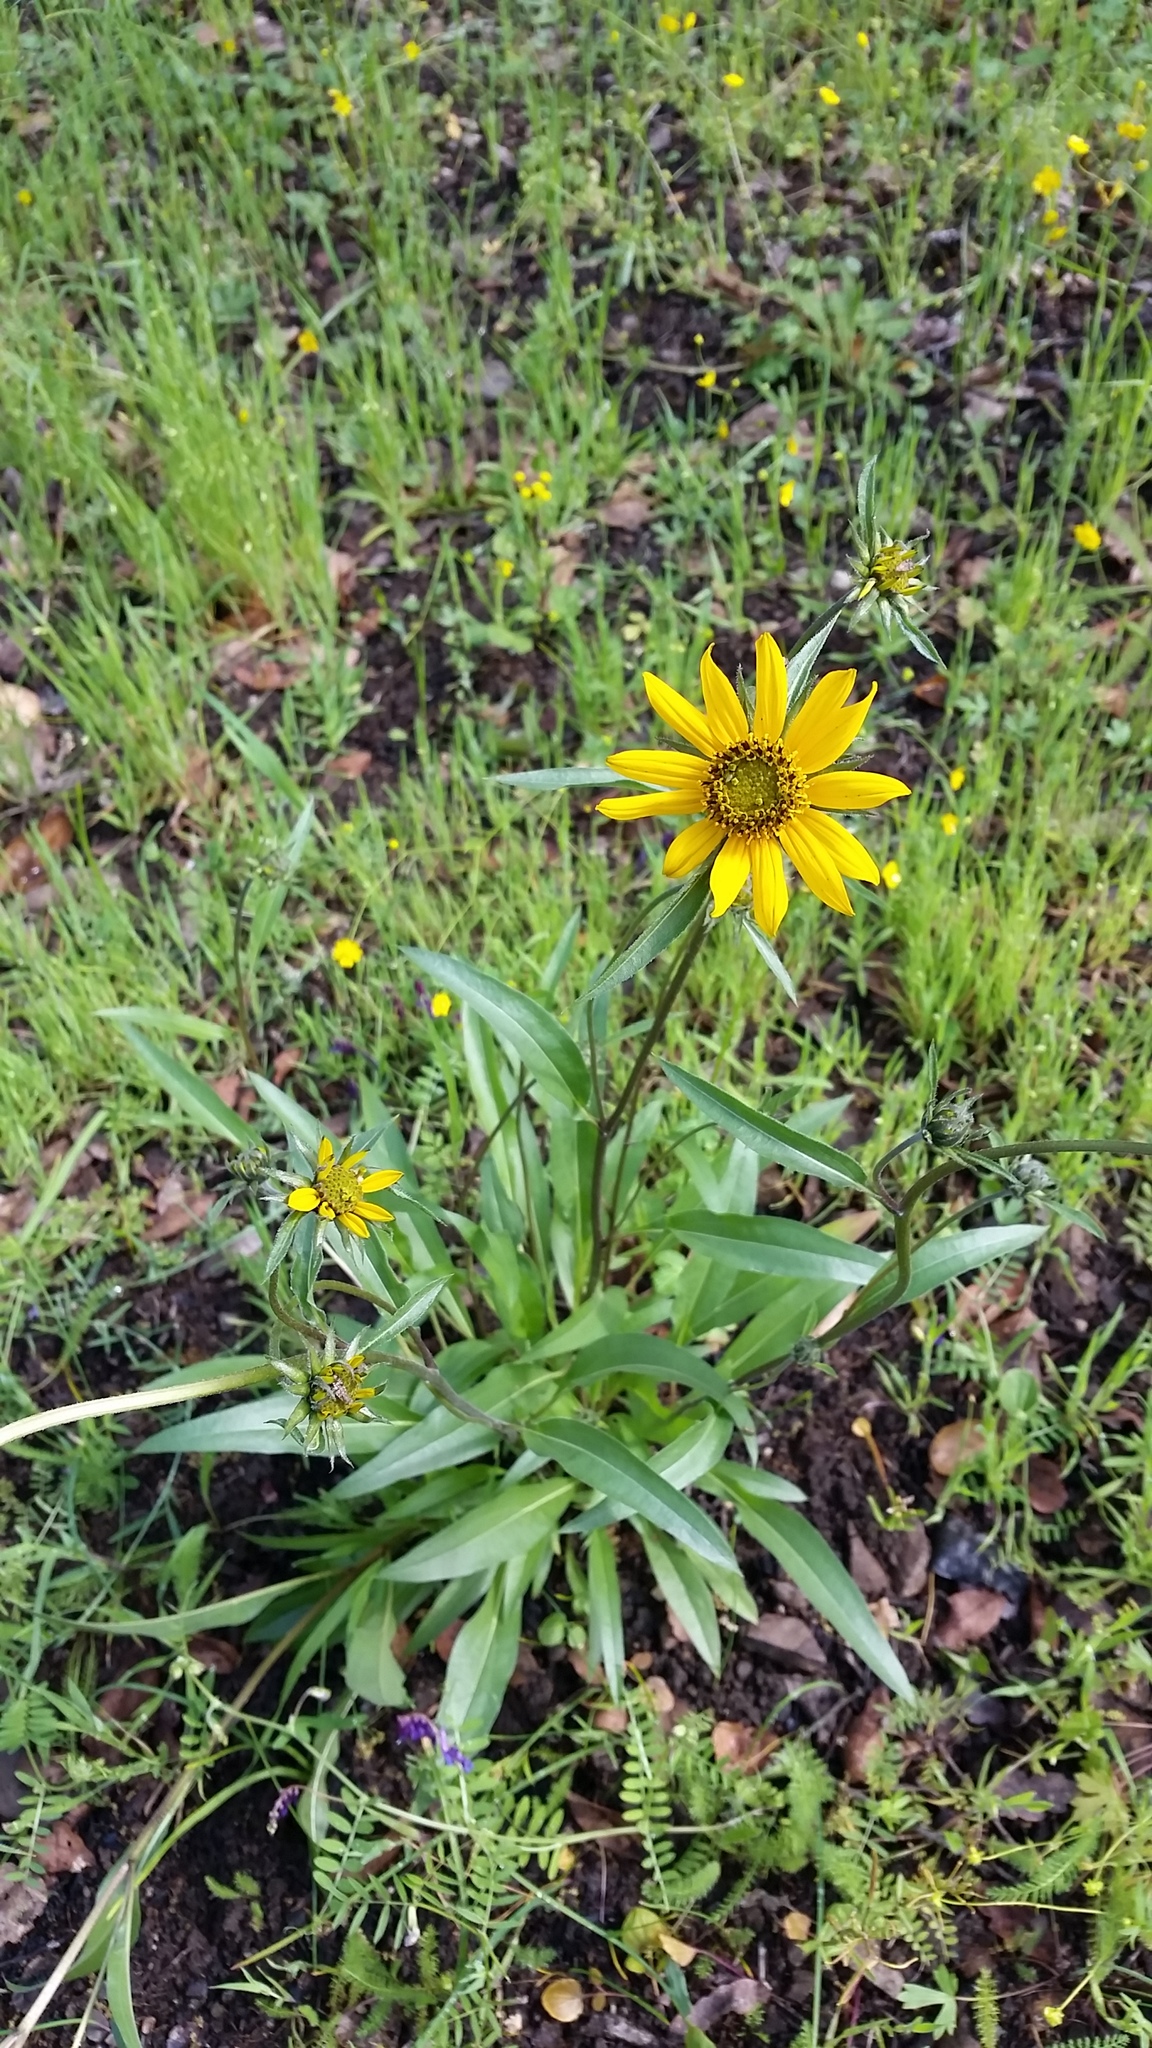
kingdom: Plantae
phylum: Tracheophyta
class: Magnoliopsida
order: Asterales
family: Asteraceae
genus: Wyethia
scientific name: Wyethia angustifolia
